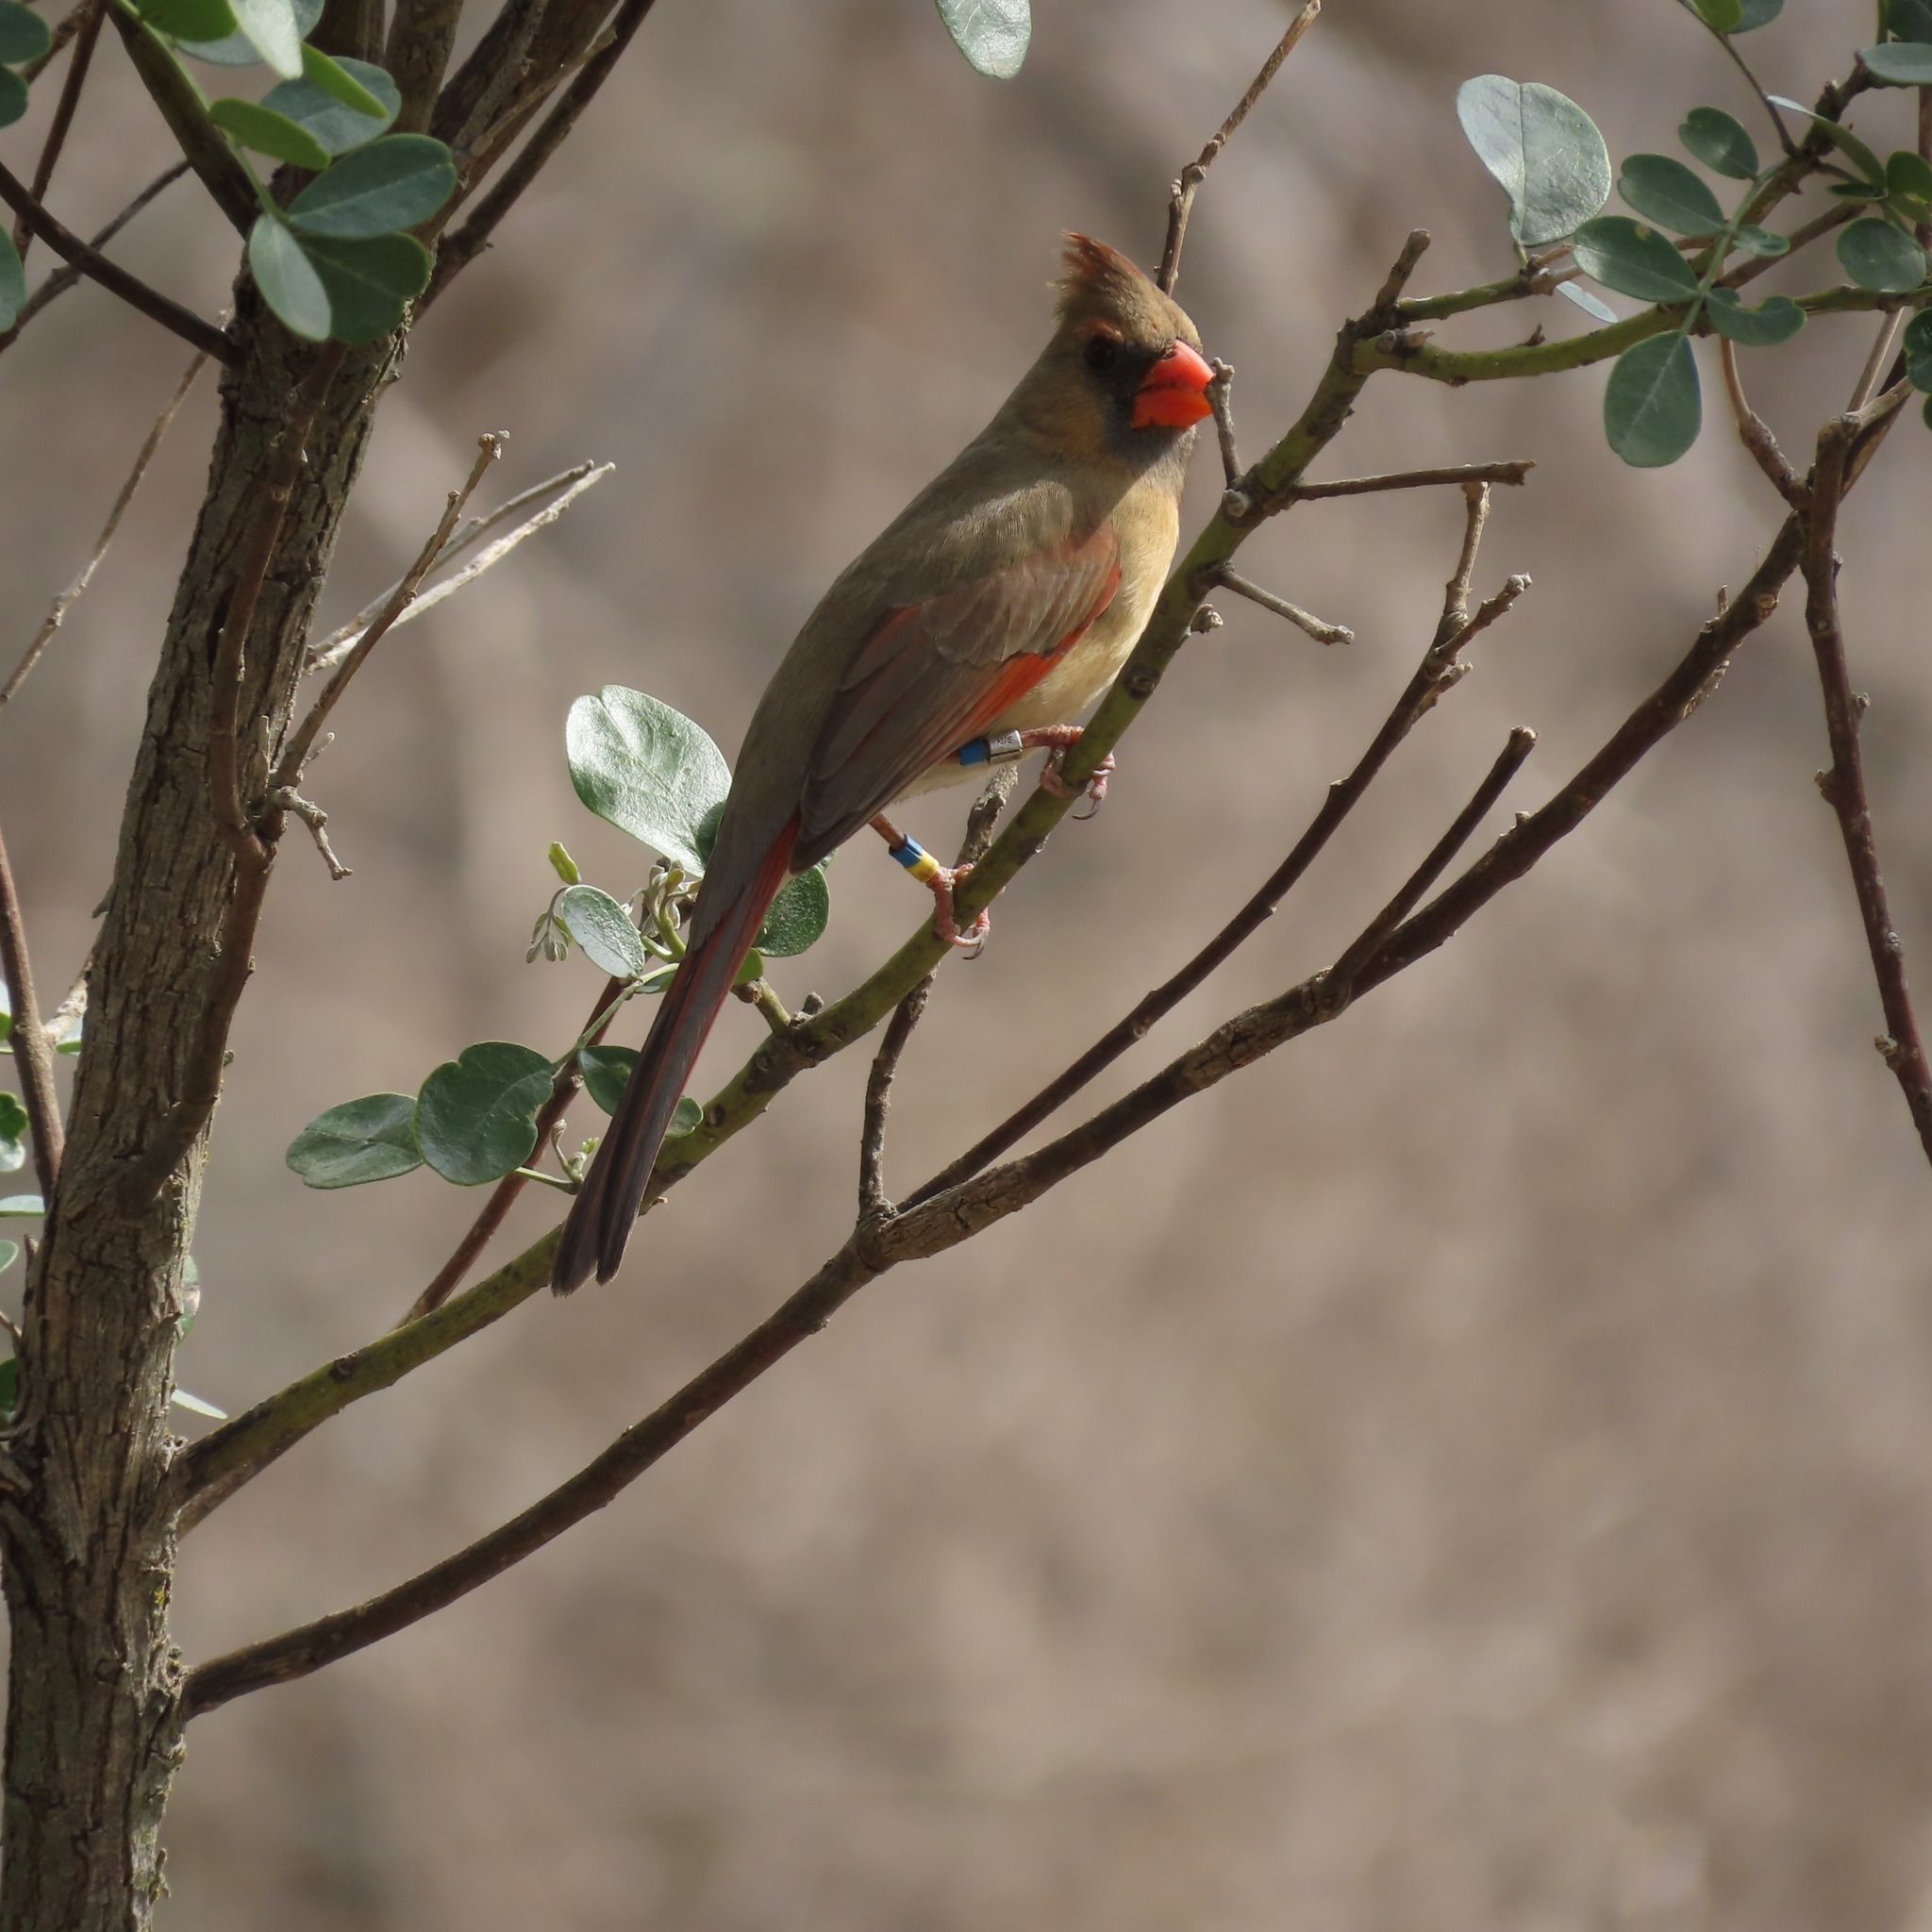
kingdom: Animalia
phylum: Chordata
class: Aves
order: Passeriformes
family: Cardinalidae
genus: Cardinalis
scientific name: Cardinalis cardinalis
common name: Northern cardinal
